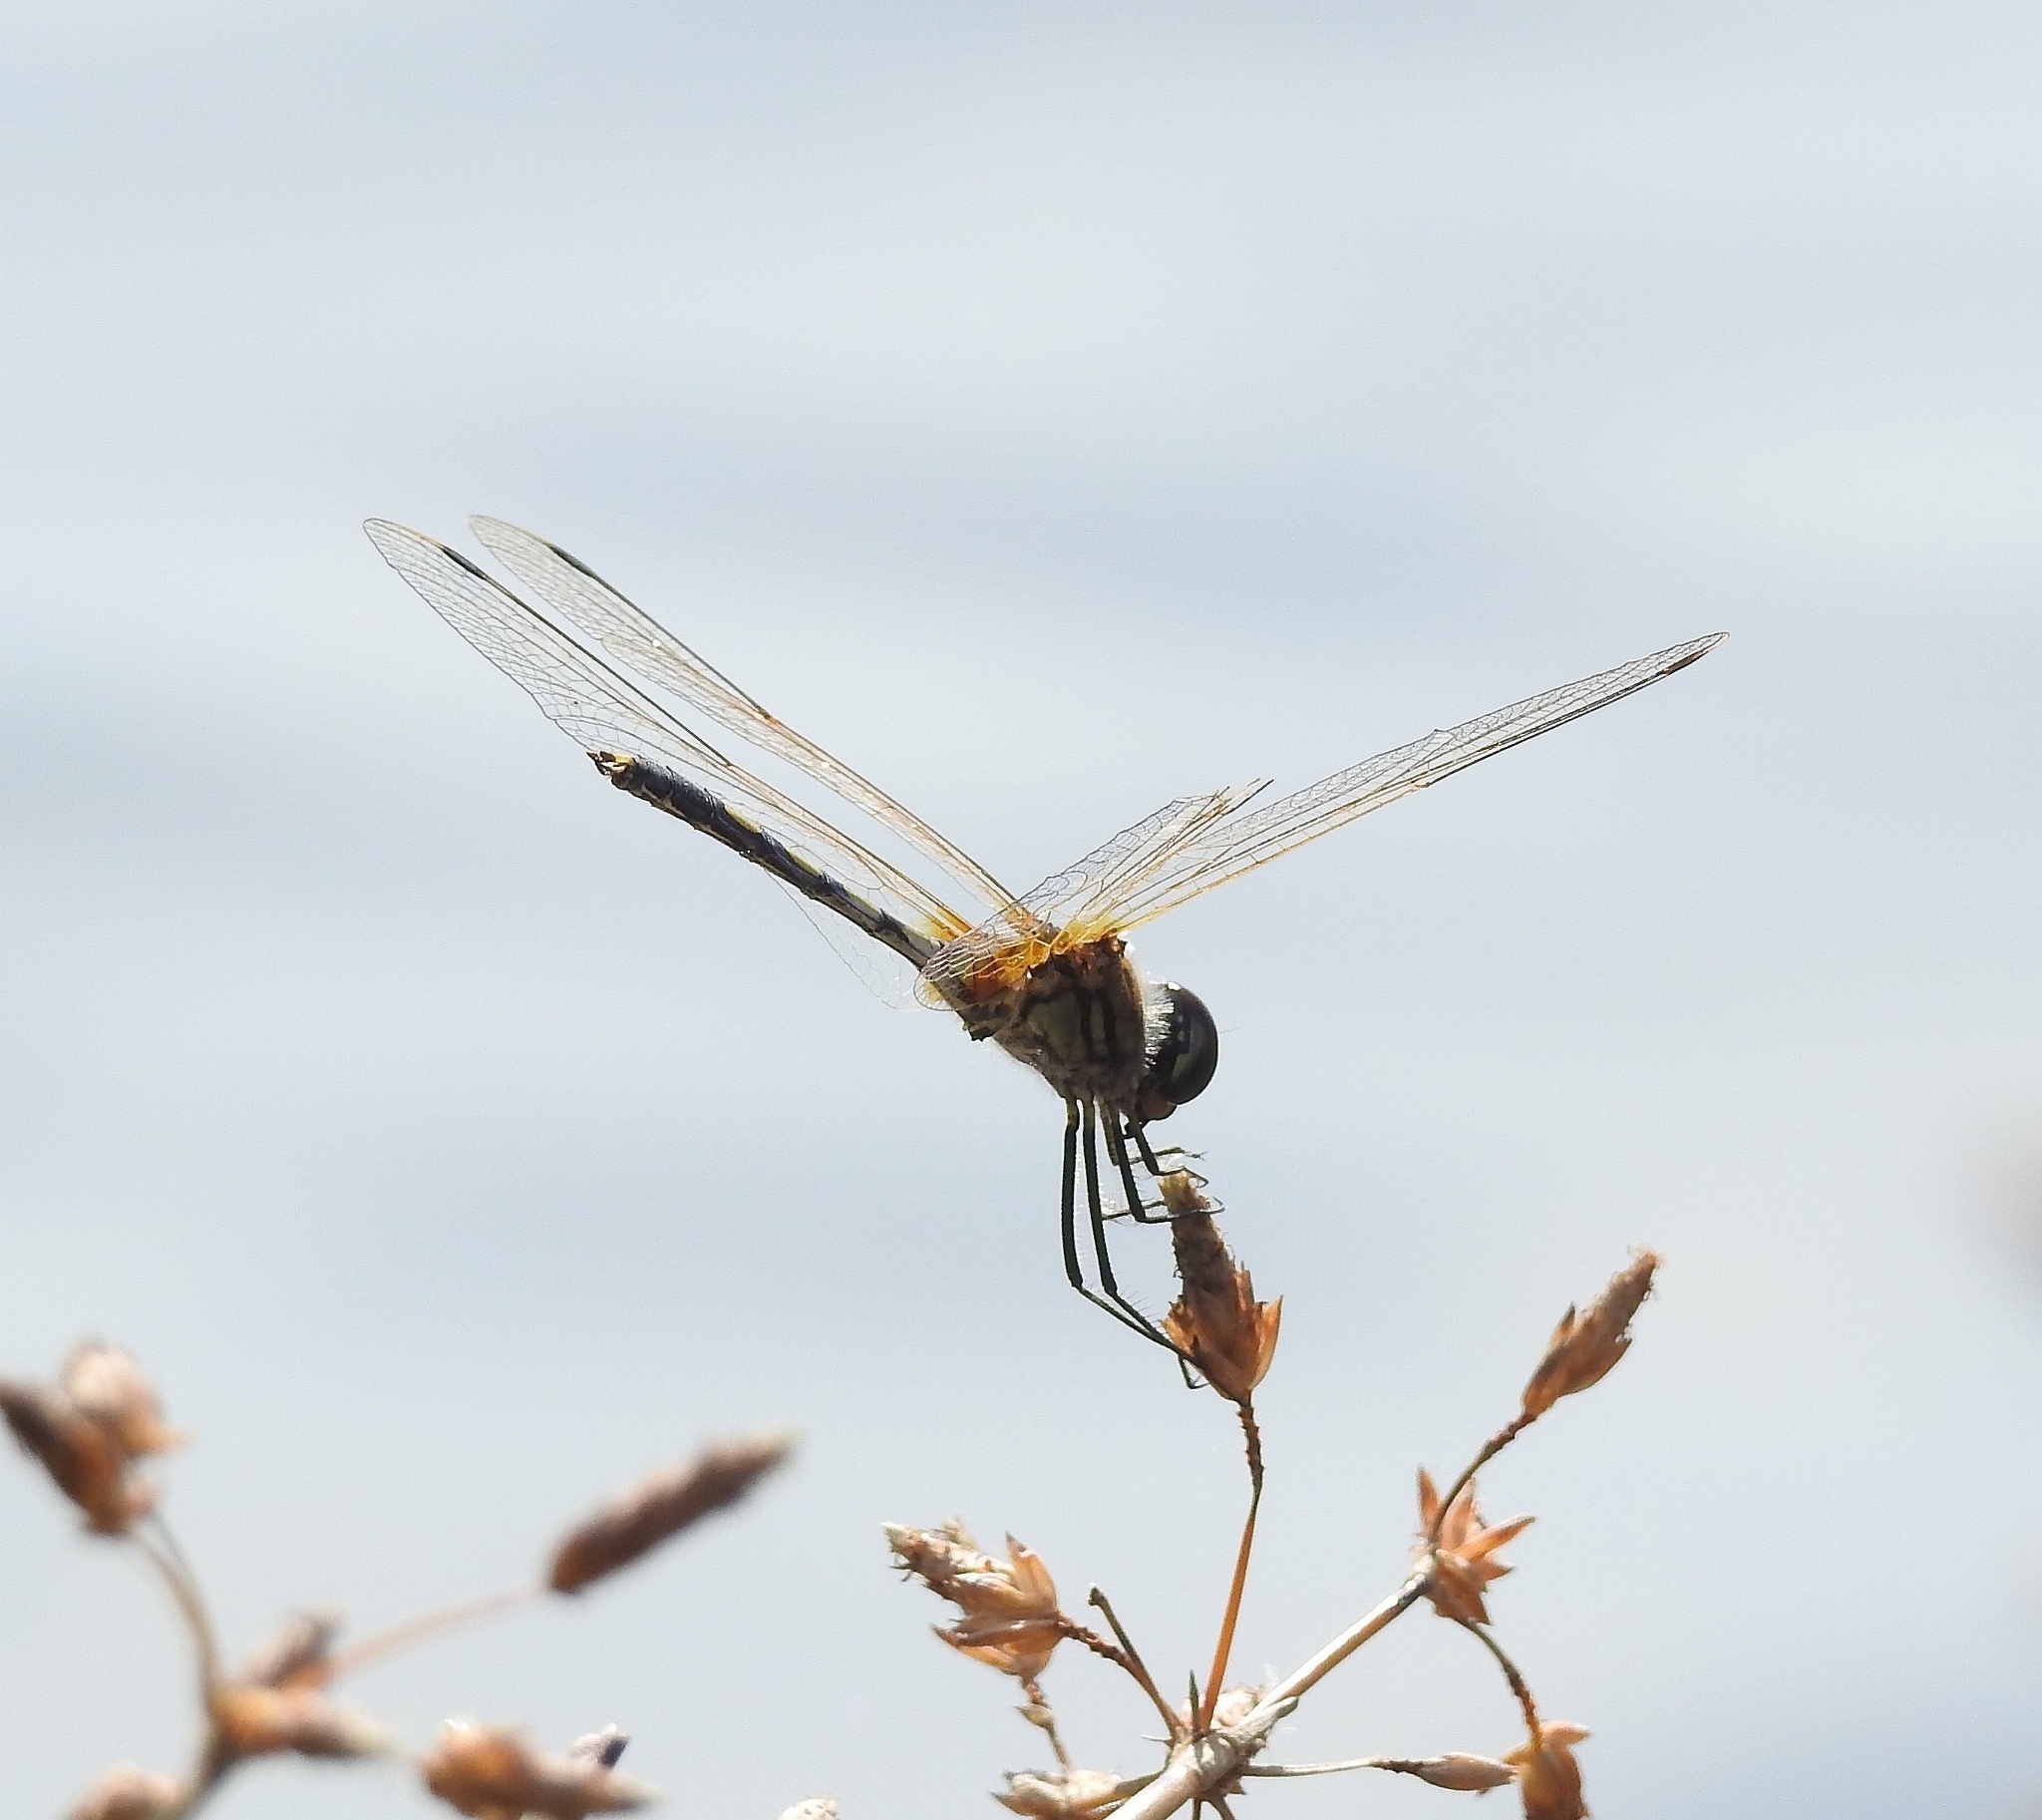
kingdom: Animalia
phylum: Arthropoda
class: Insecta
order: Odonata
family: Libellulidae
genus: Trithemis
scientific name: Trithemis pallidinervis
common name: Dancing dropwing
